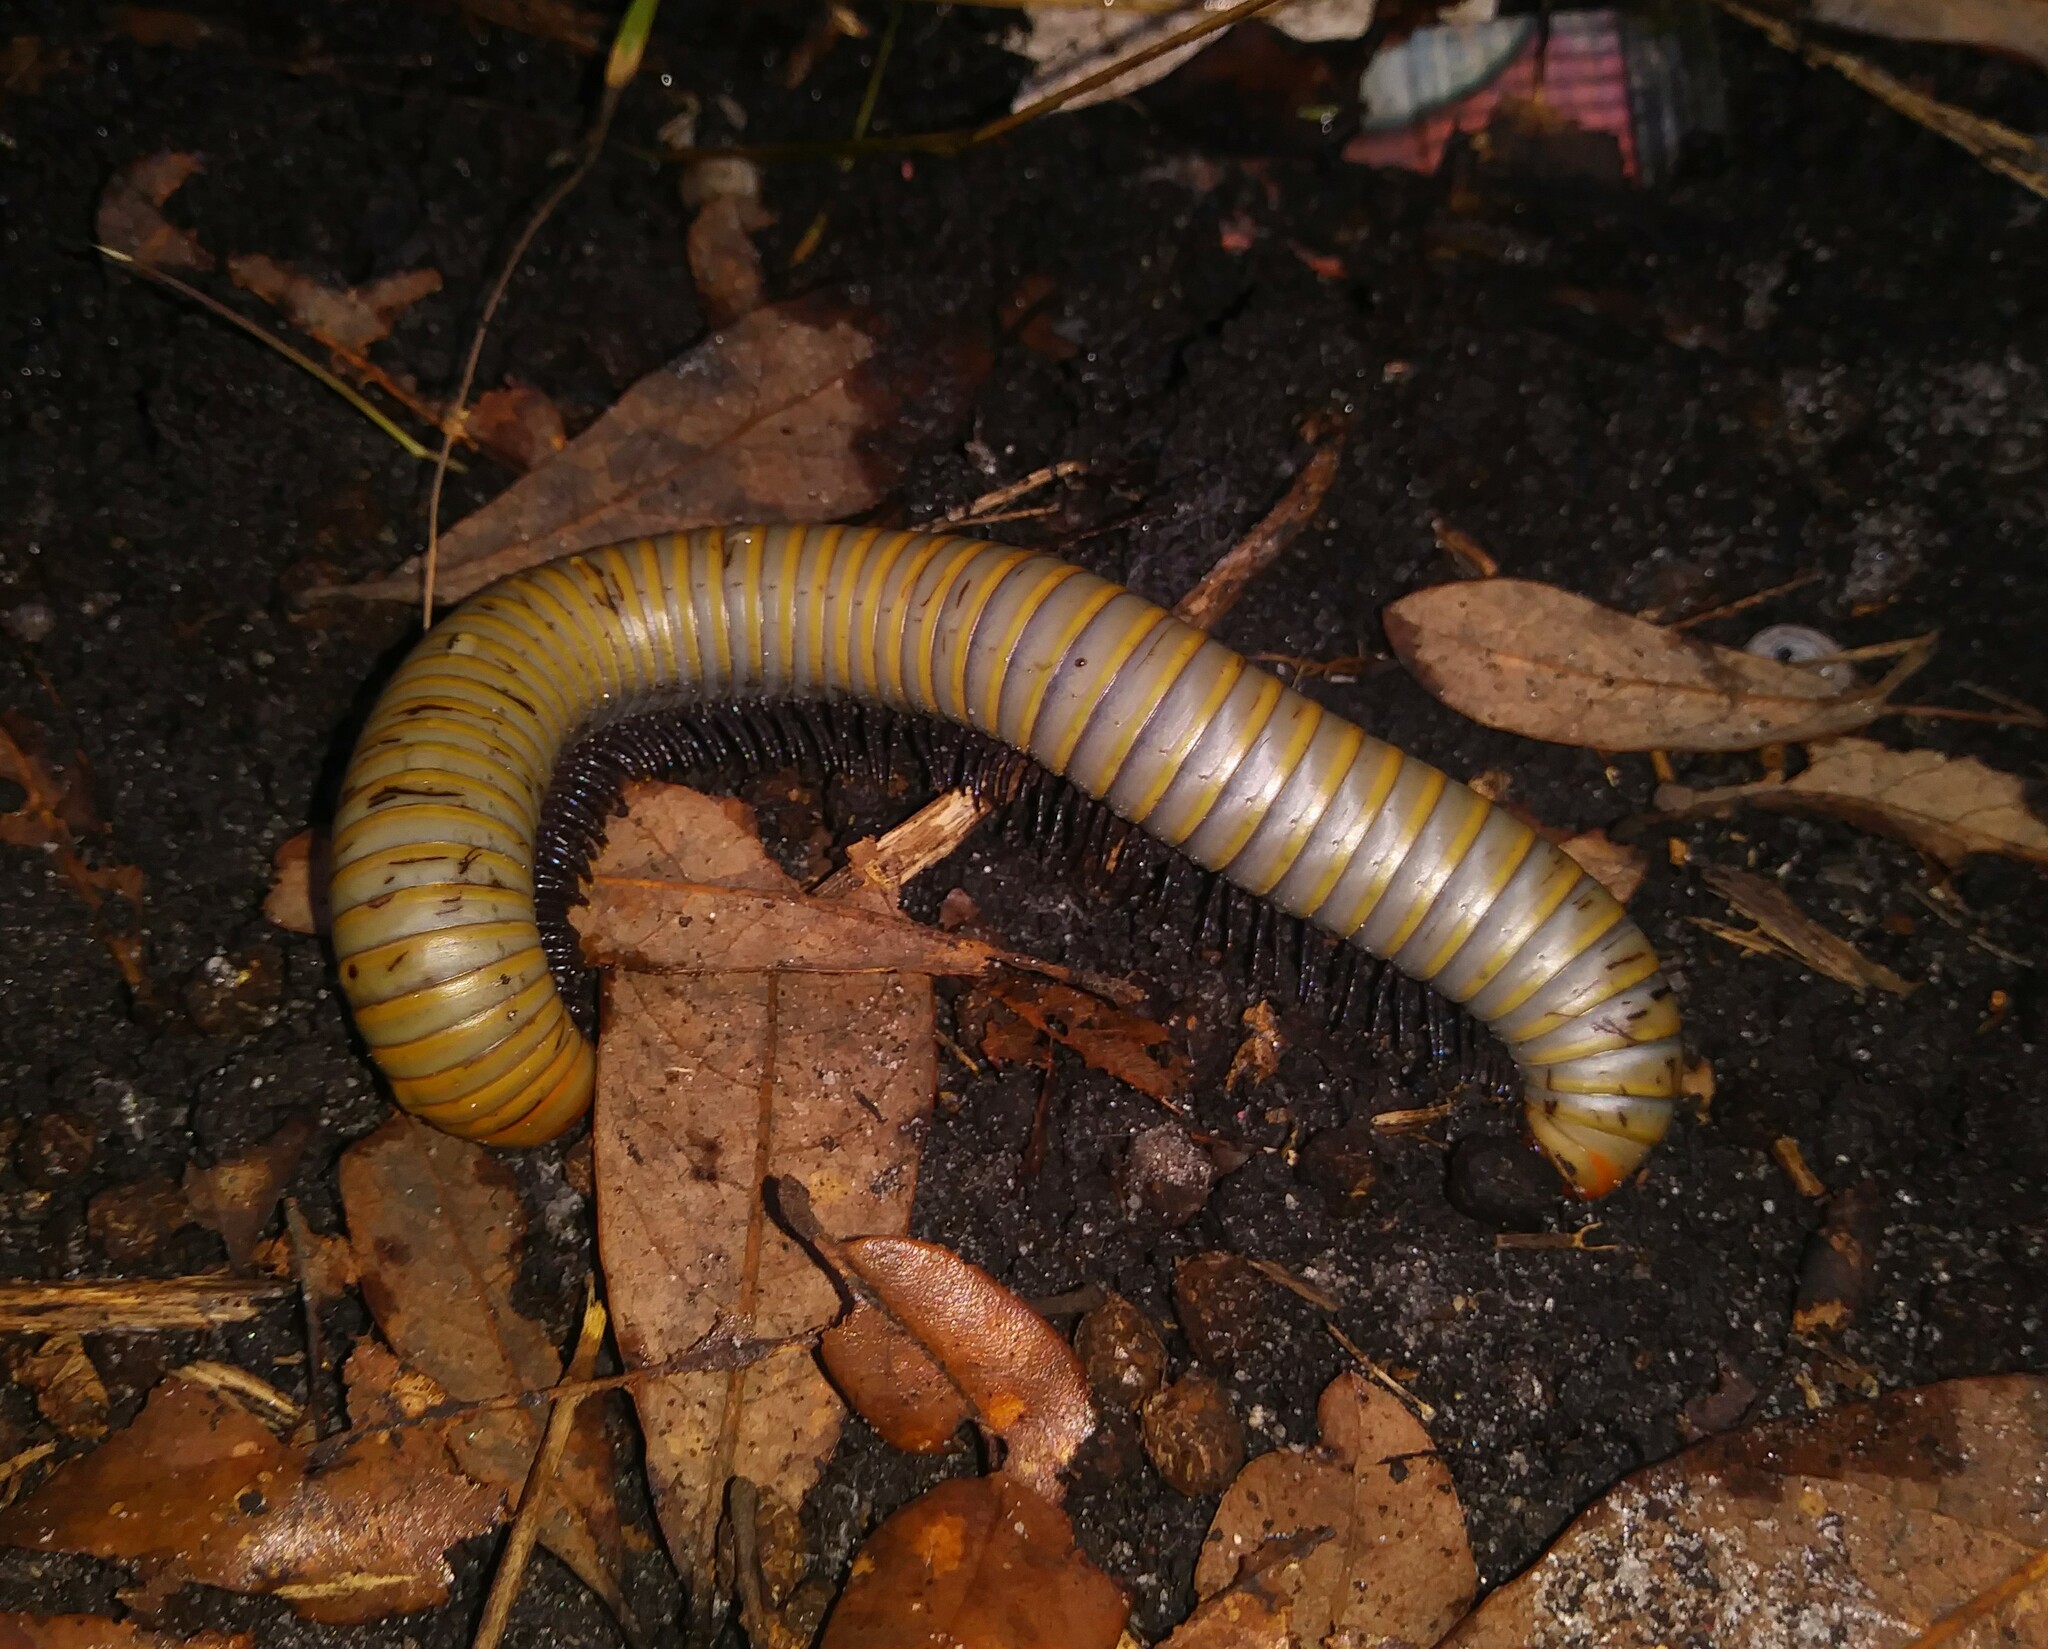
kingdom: Animalia
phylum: Arthropoda
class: Diplopoda
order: Spirobolida
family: Spirobolidae
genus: Narceus
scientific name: Narceus gordanus
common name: Grayish-green millipede
